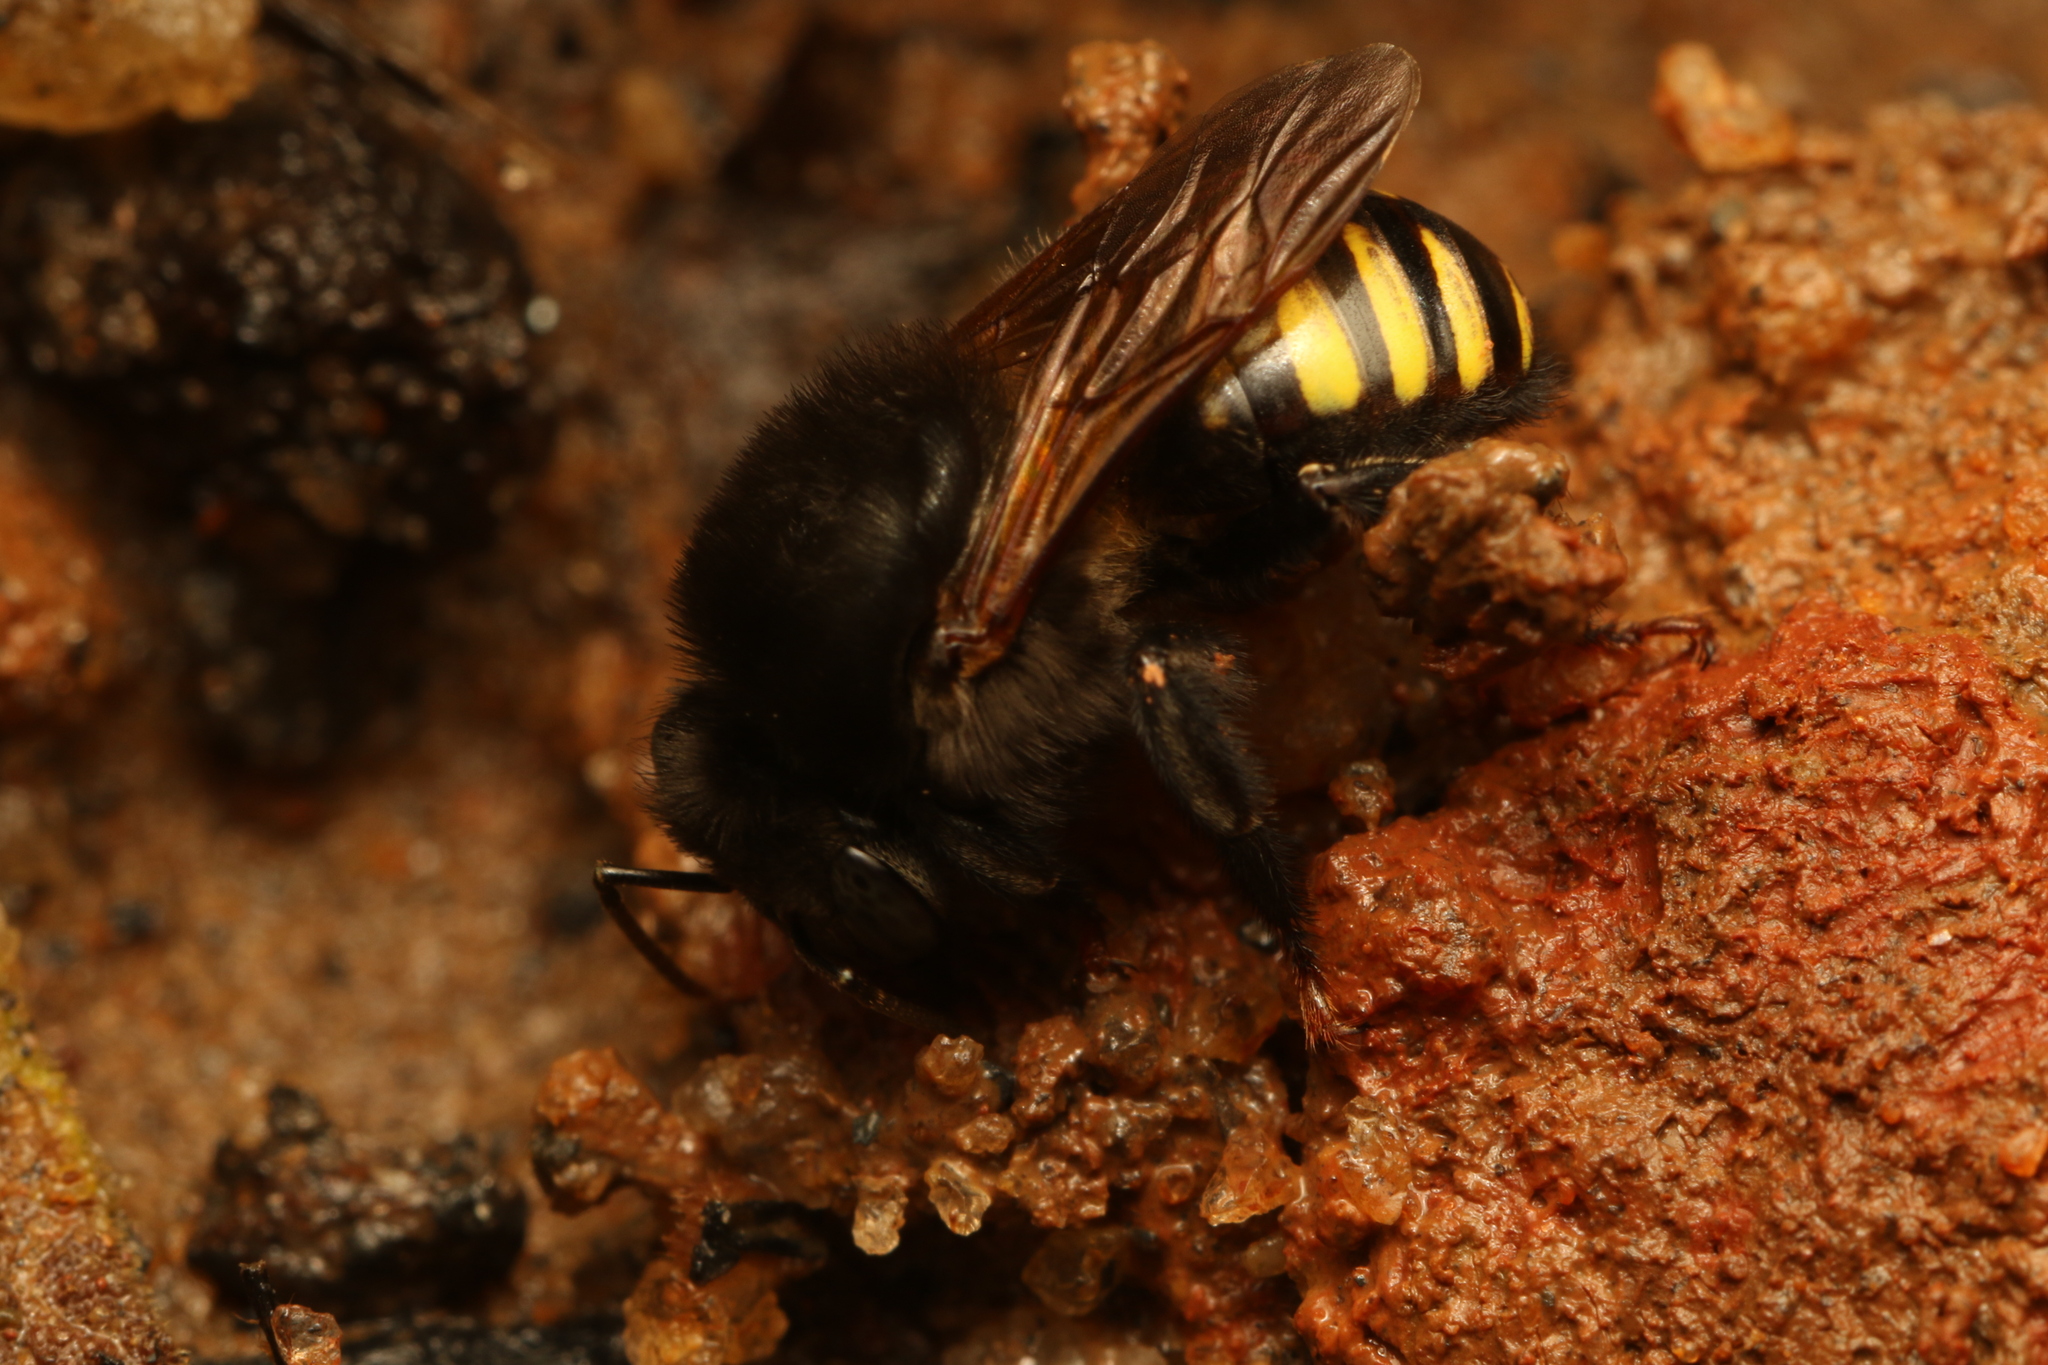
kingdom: Animalia
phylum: Arthropoda
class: Insecta
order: Hymenoptera
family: Apidae
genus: Melipona
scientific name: Melipona quadrifasciata
